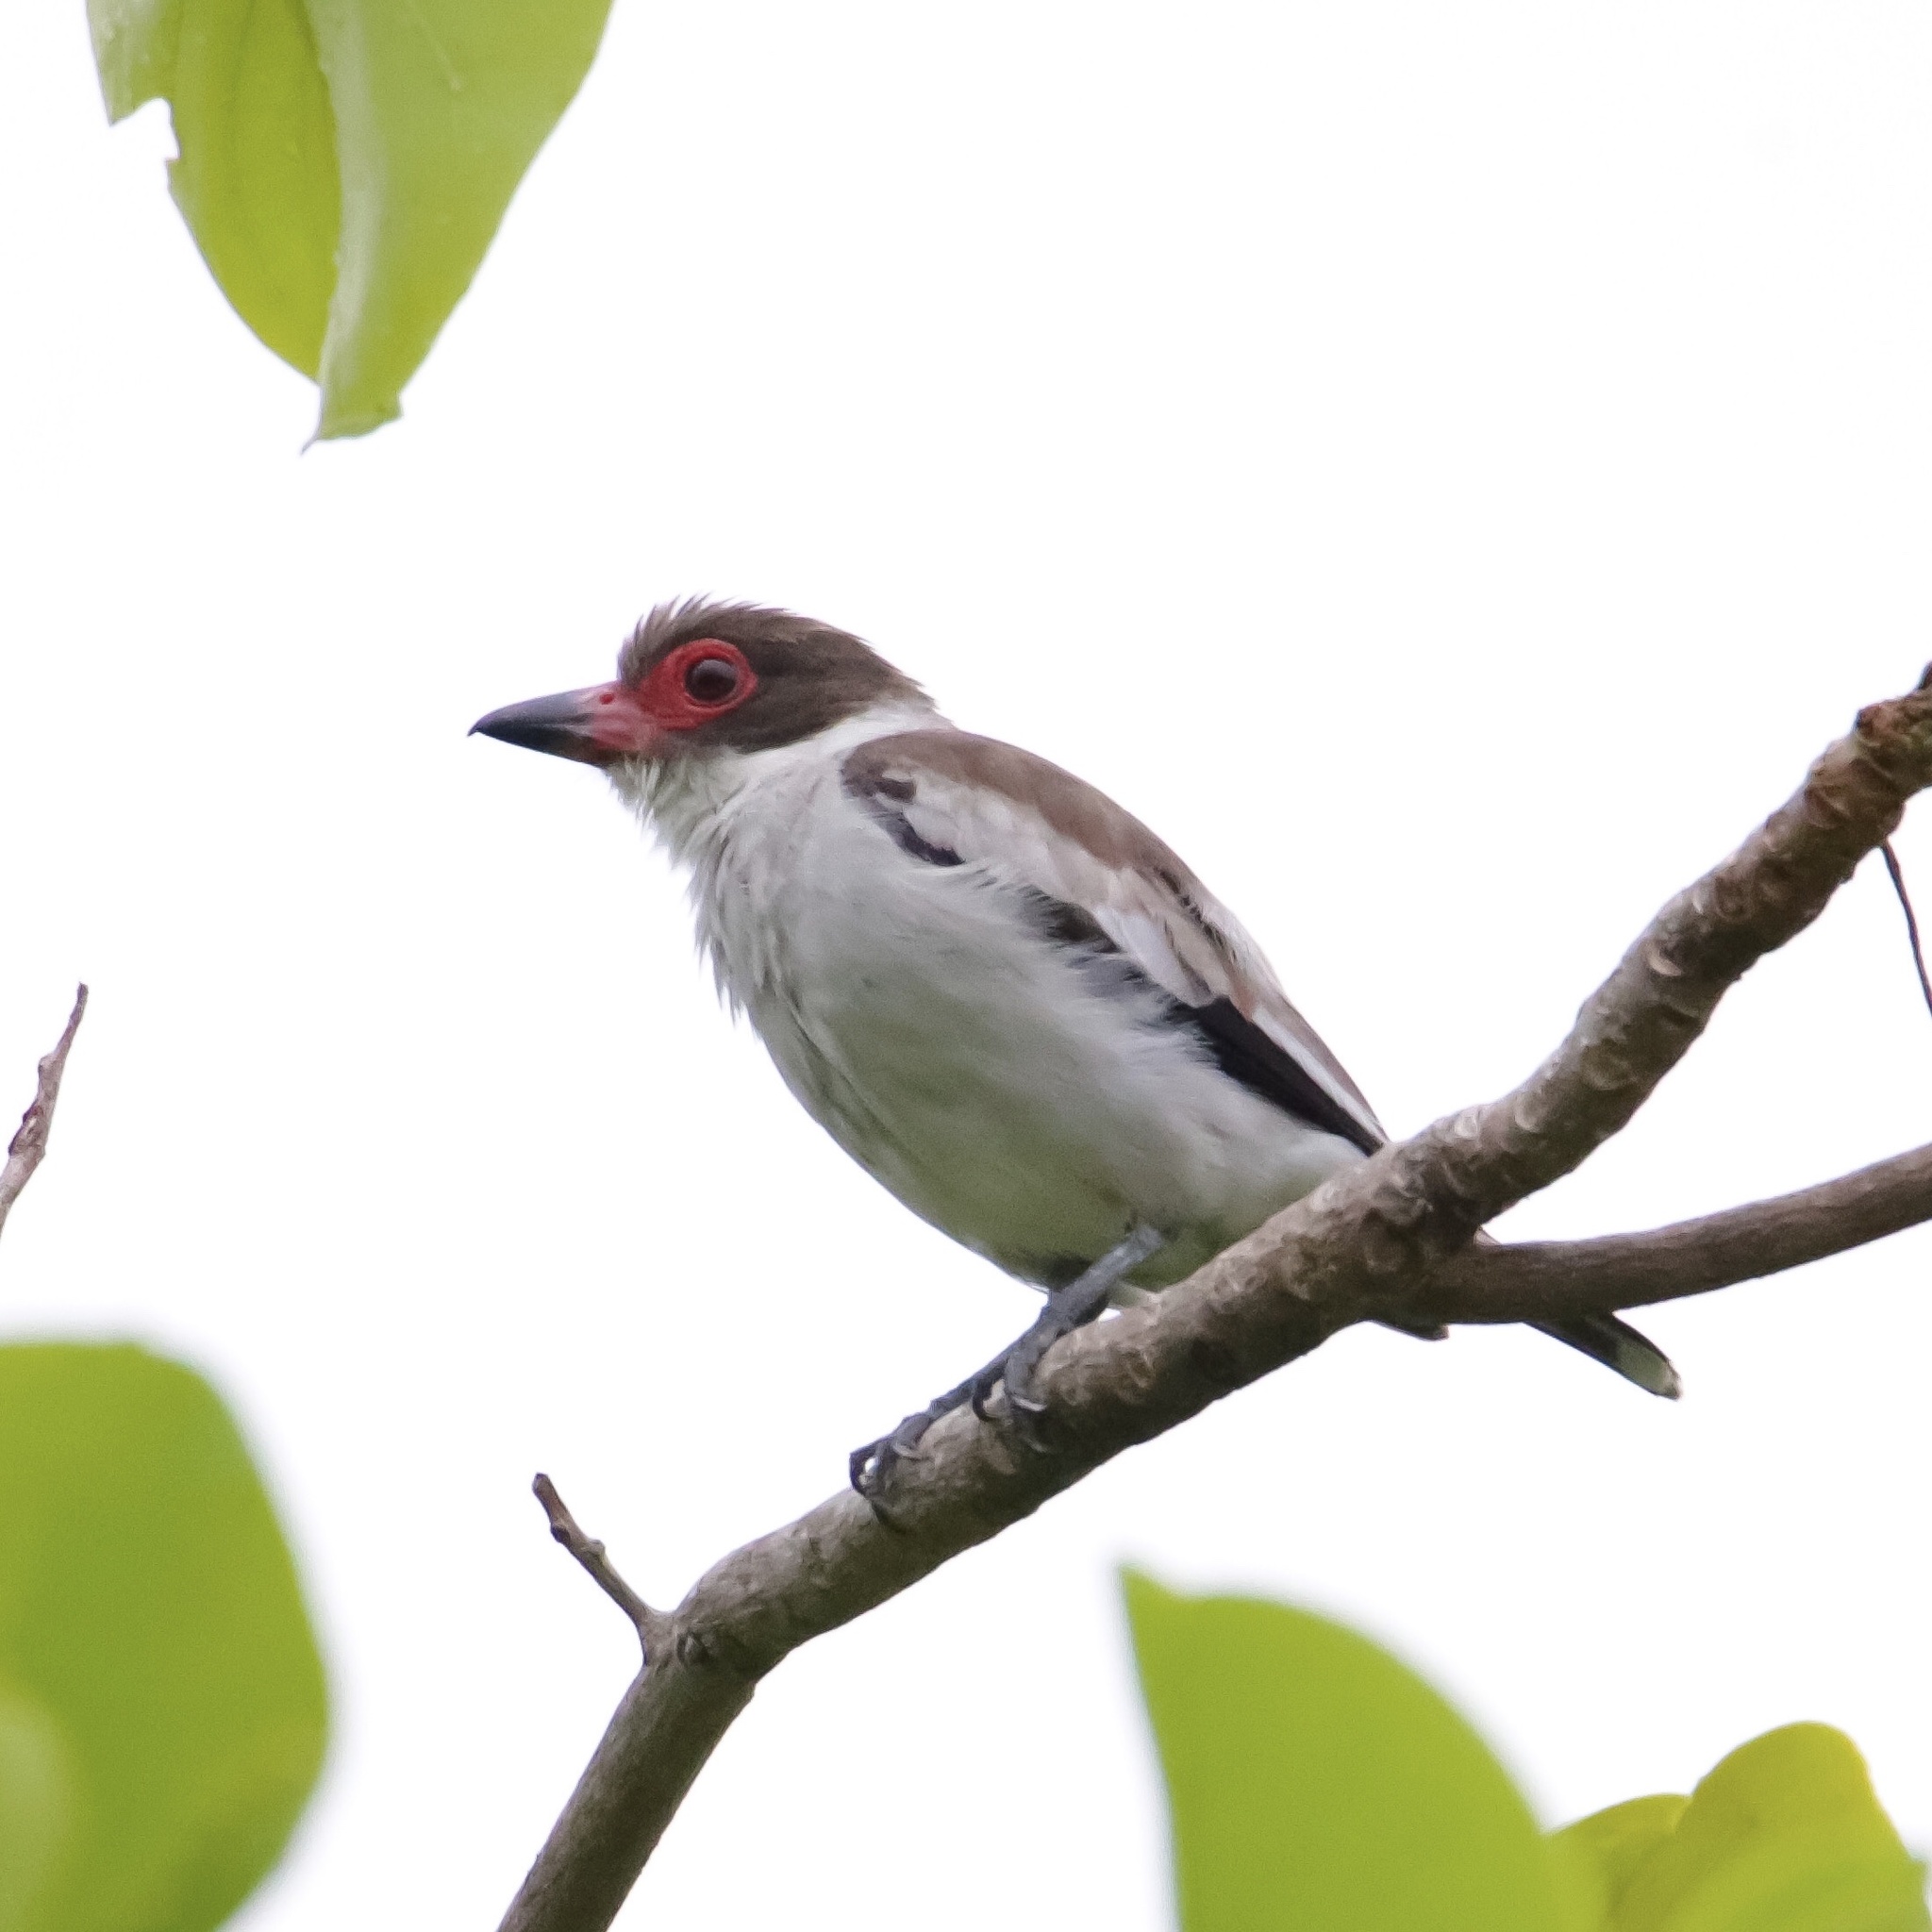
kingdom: Animalia
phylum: Chordata
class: Aves
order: Passeriformes
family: Cotingidae
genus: Tityra
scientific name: Tityra semifasciata
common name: Masked tityra
